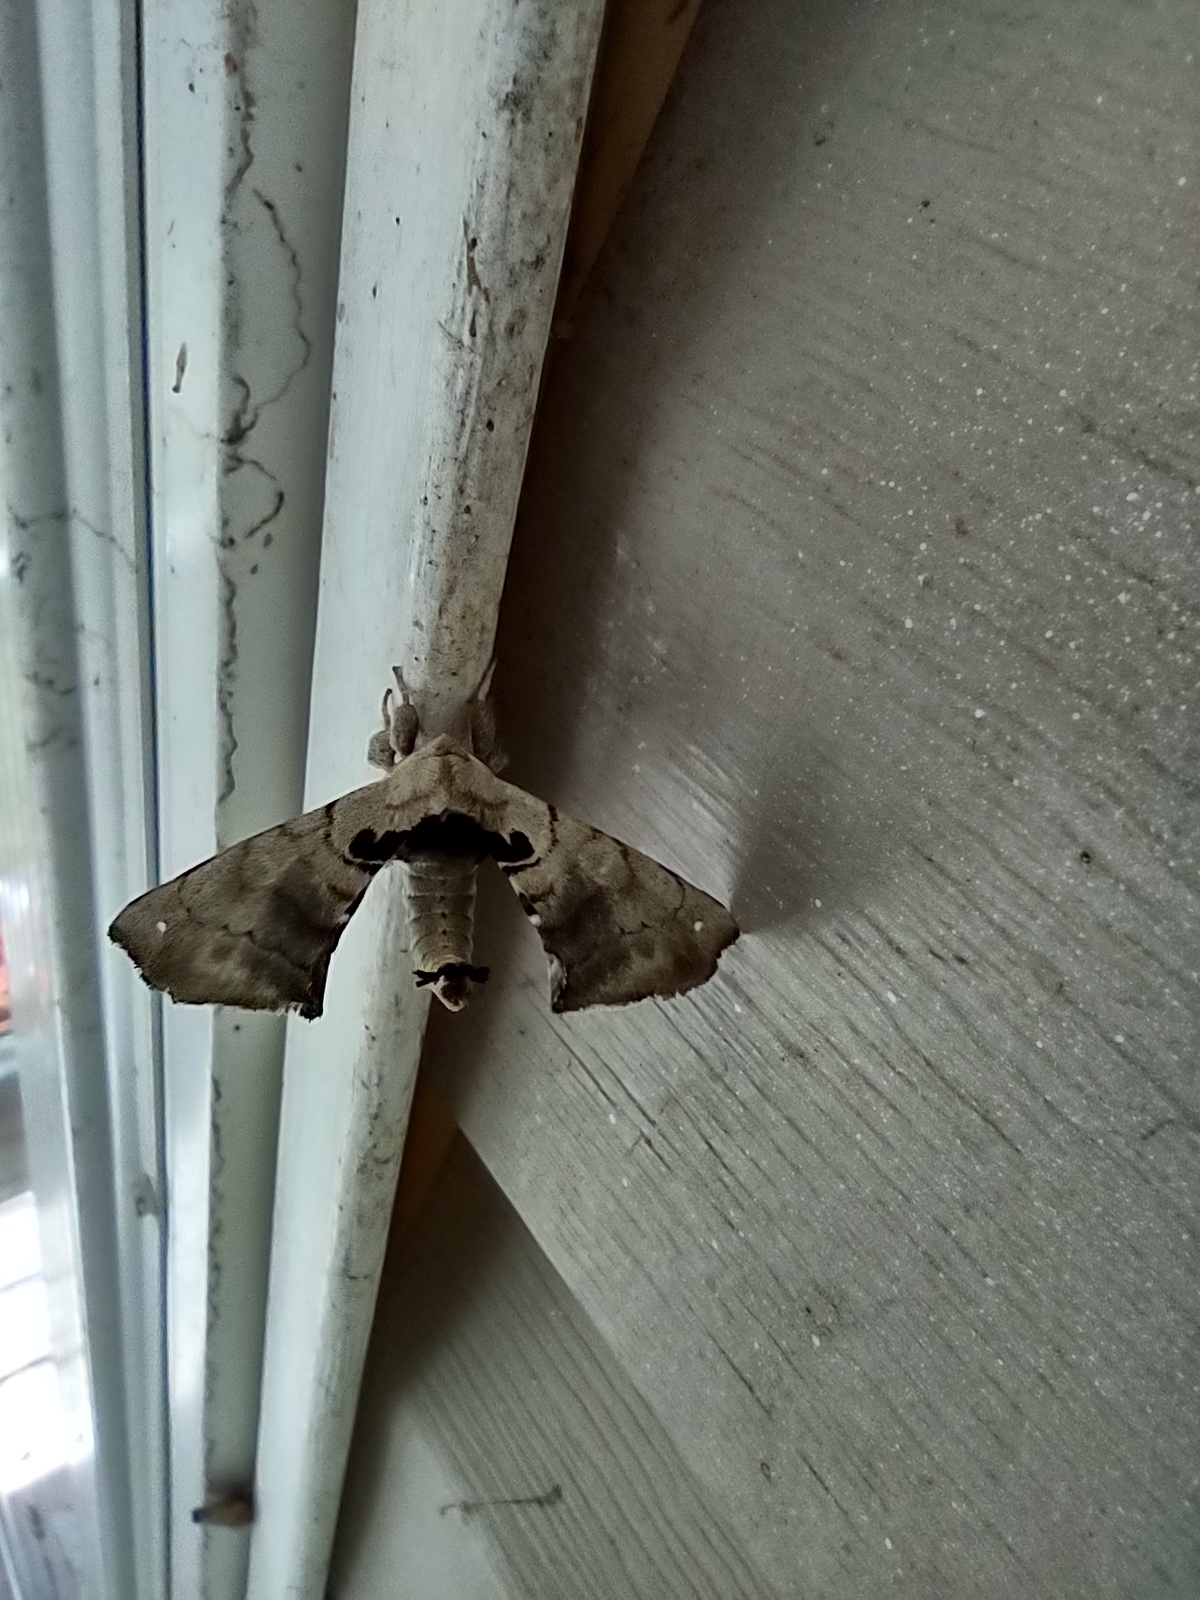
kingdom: Animalia
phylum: Arthropoda
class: Insecta
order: Lepidoptera
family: Apatelodidae
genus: Hygrochroa
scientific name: Hygrochroa Apatelodes torrefacta
